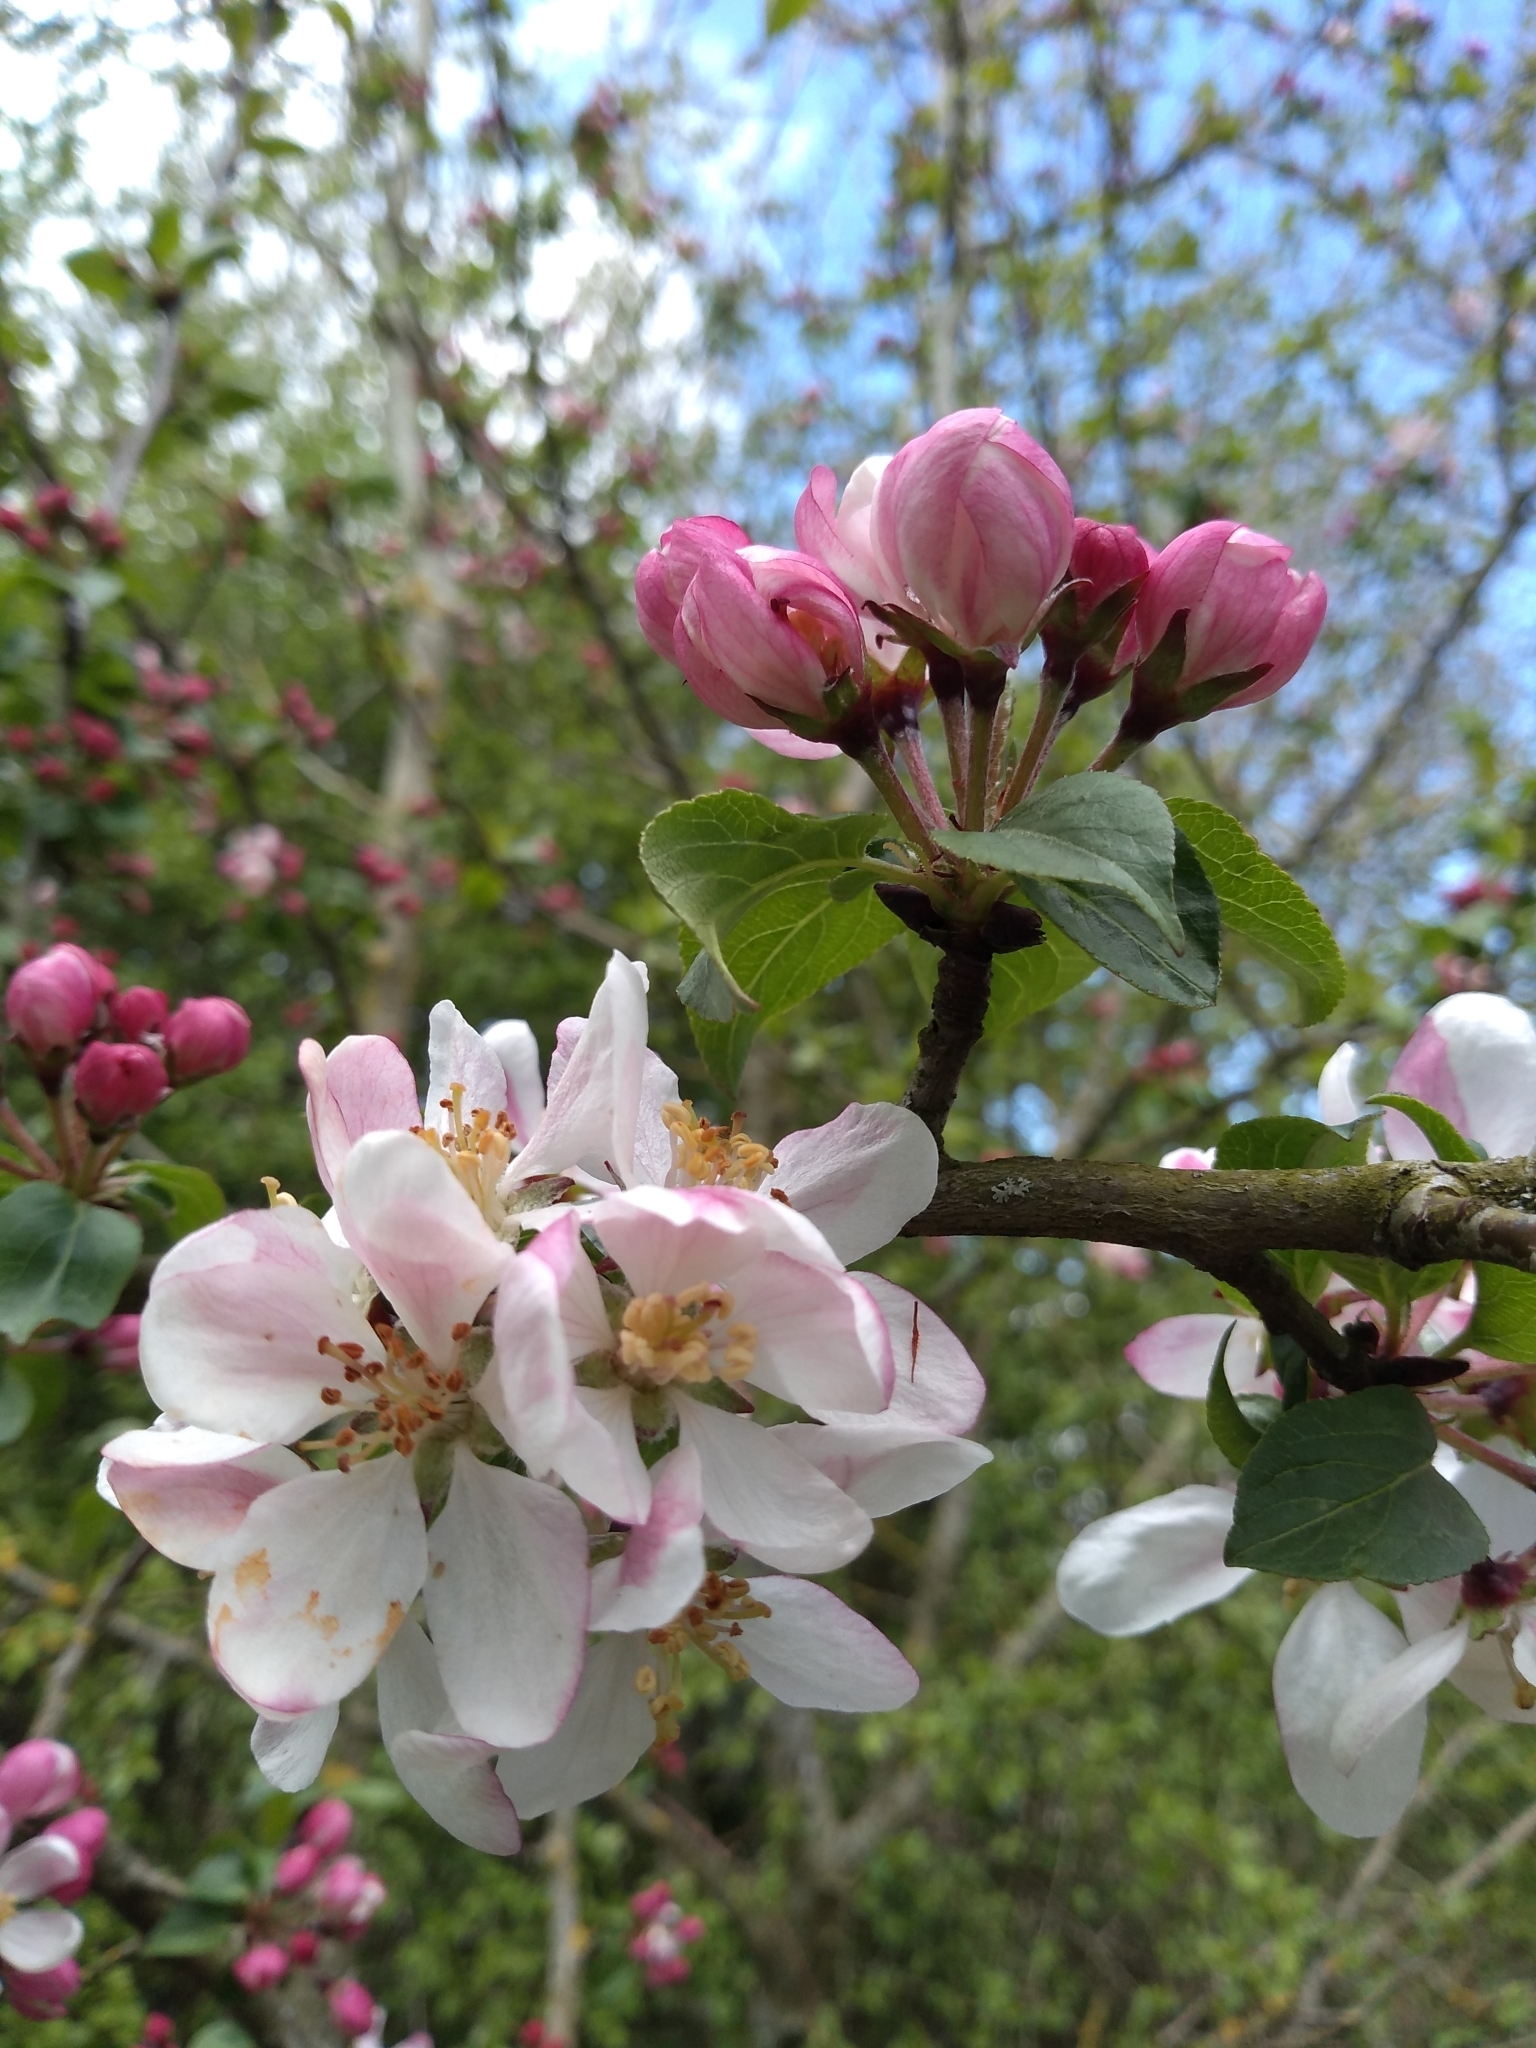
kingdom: Plantae
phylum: Tracheophyta
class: Magnoliopsida
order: Rosales
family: Rosaceae
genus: Malus
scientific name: Malus sylvestris
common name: Crab apple
